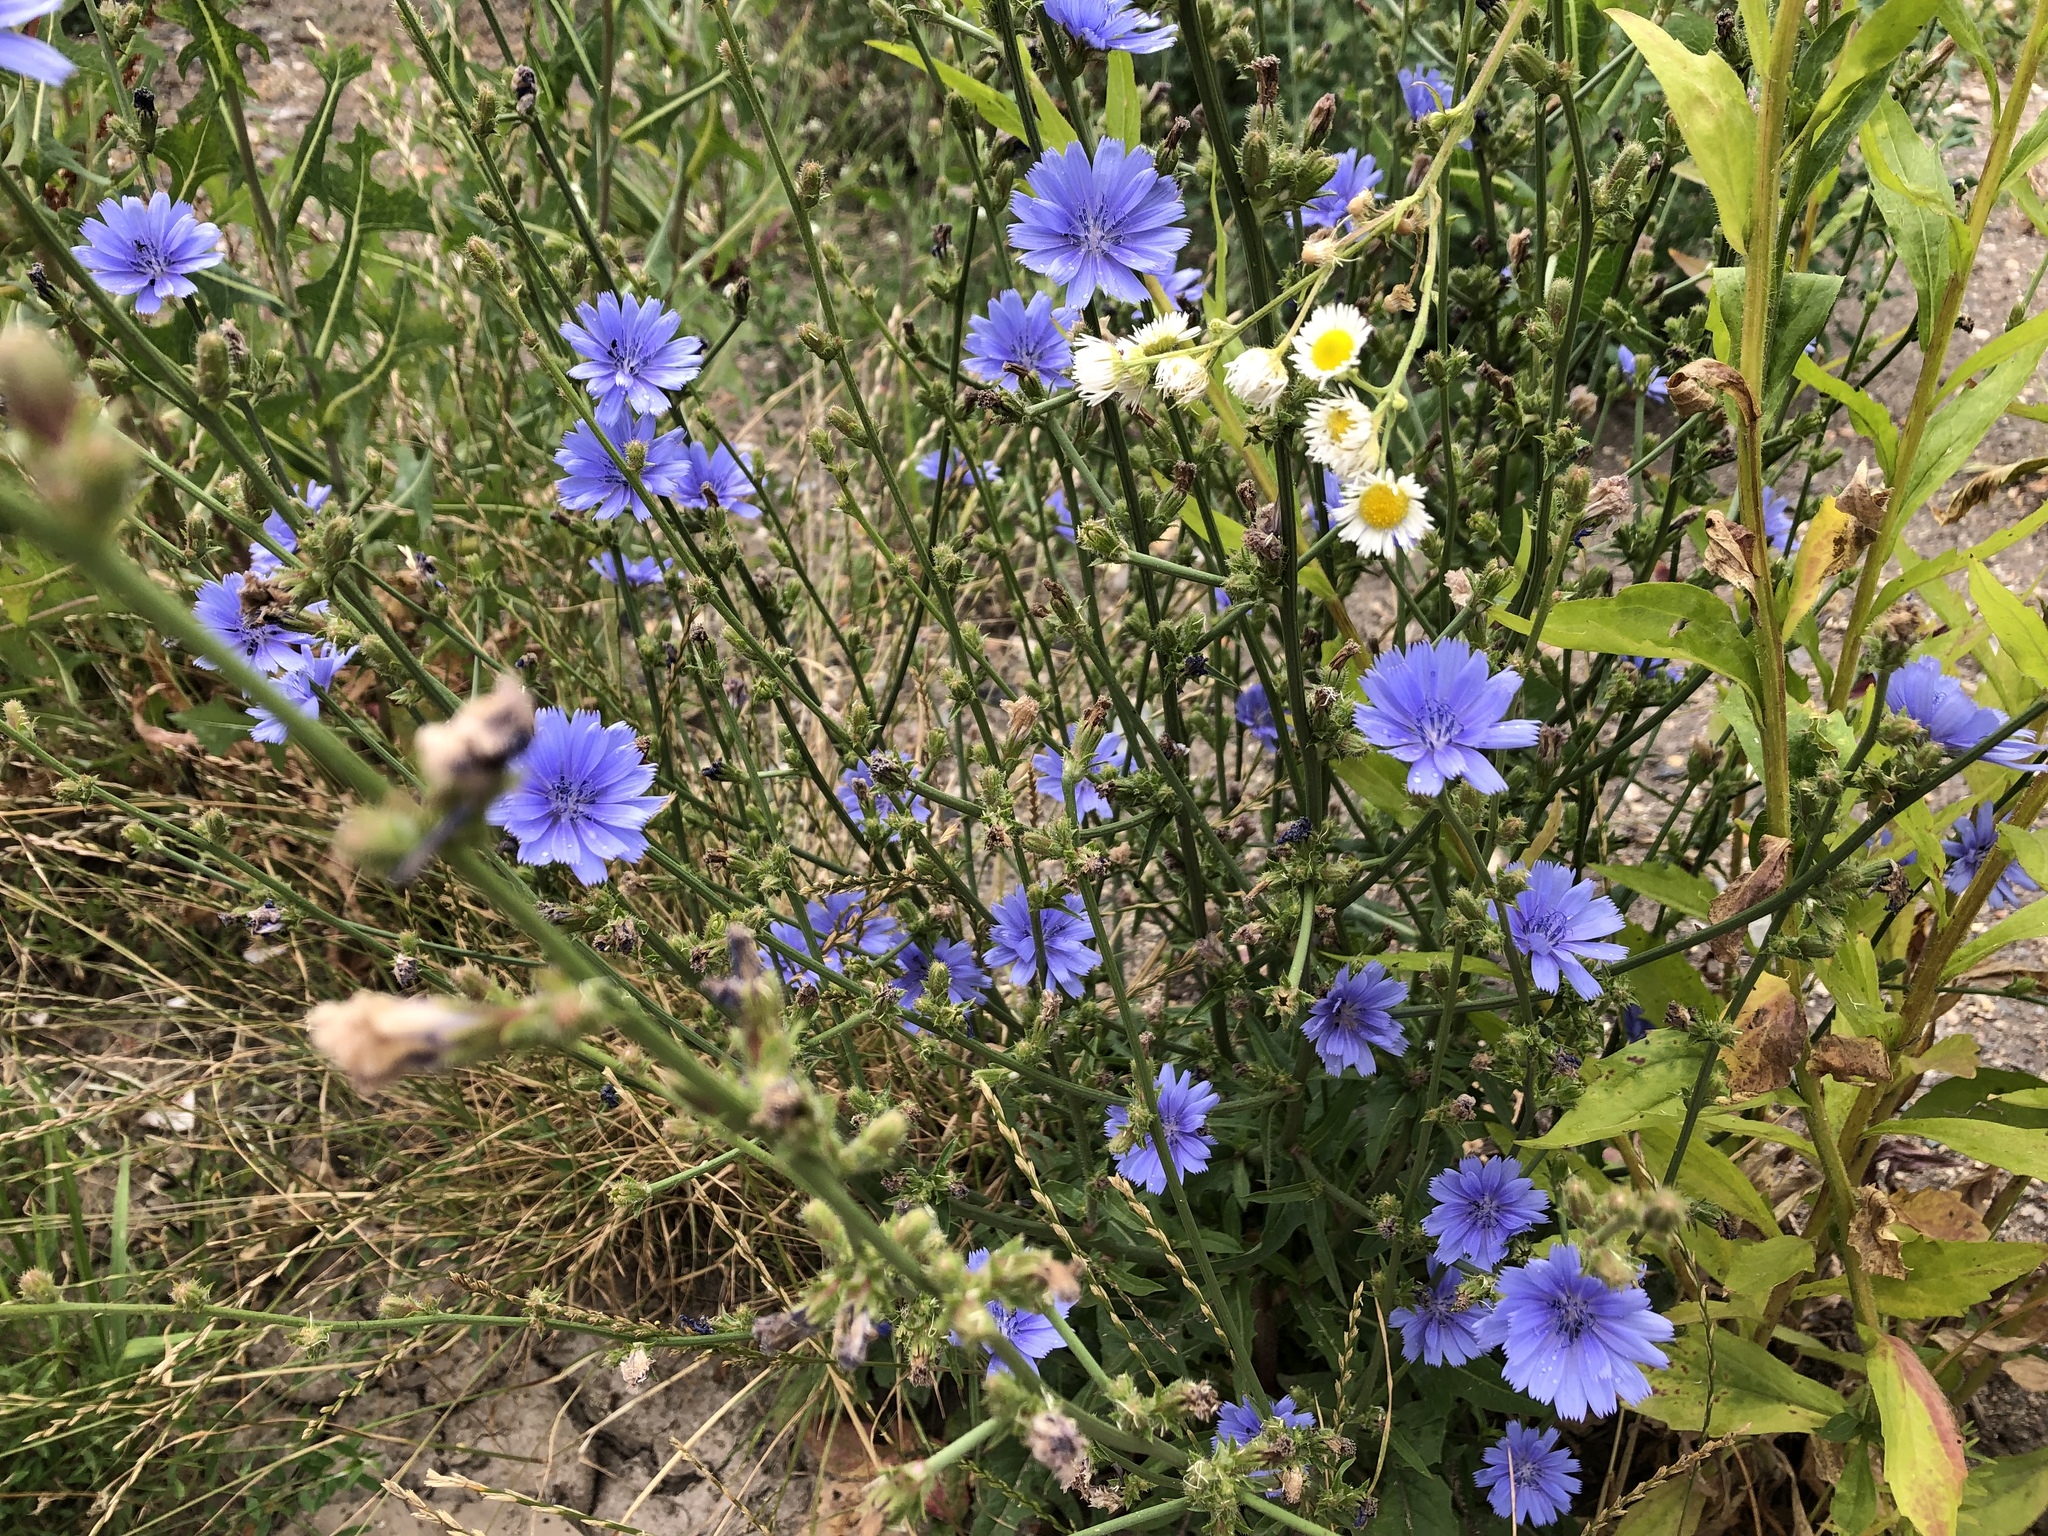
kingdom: Plantae
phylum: Tracheophyta
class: Magnoliopsida
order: Asterales
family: Asteraceae
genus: Cichorium
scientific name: Cichorium intybus
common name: Chicory
